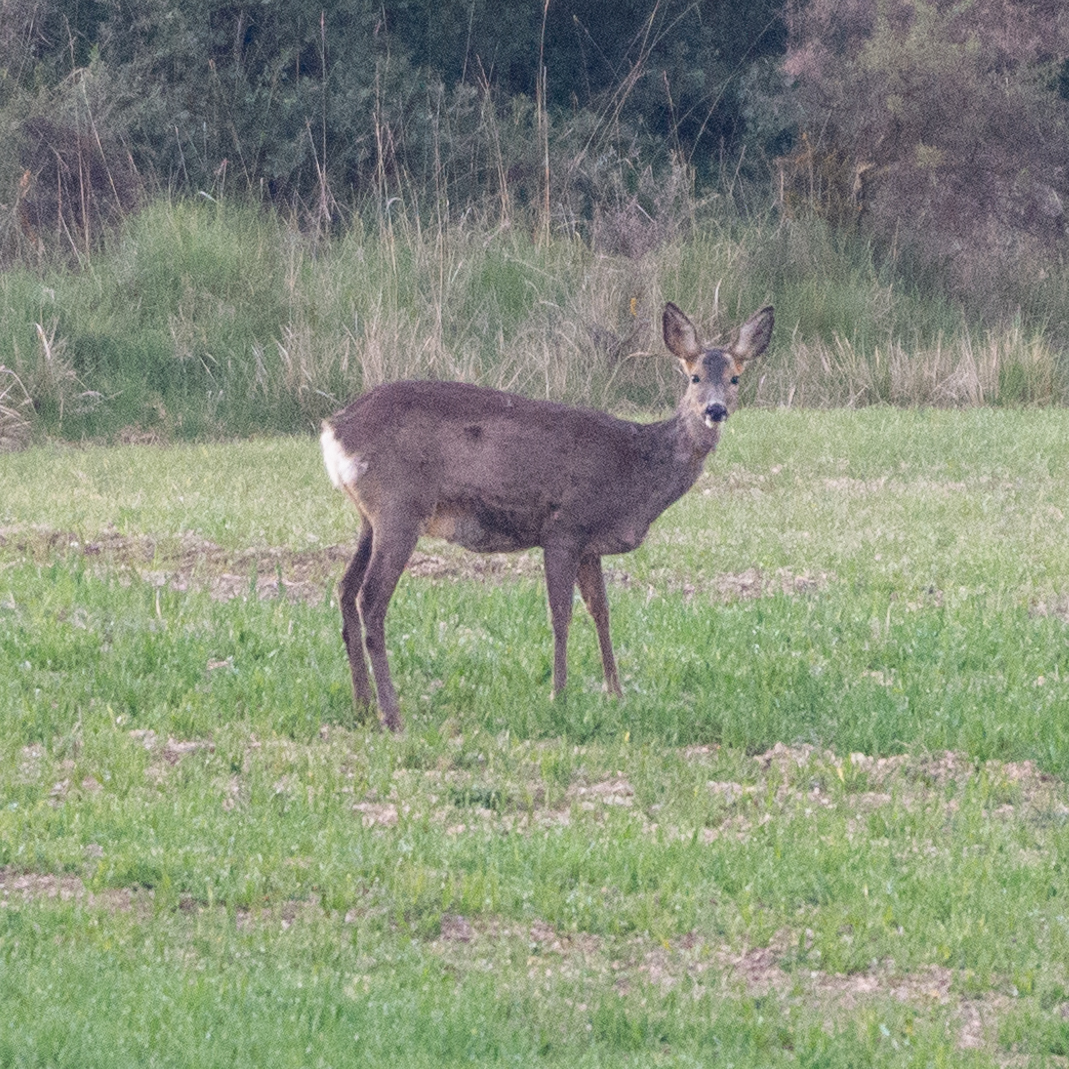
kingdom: Animalia
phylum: Chordata
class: Mammalia
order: Artiodactyla
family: Cervidae
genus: Capreolus
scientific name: Capreolus capreolus
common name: Western roe deer
